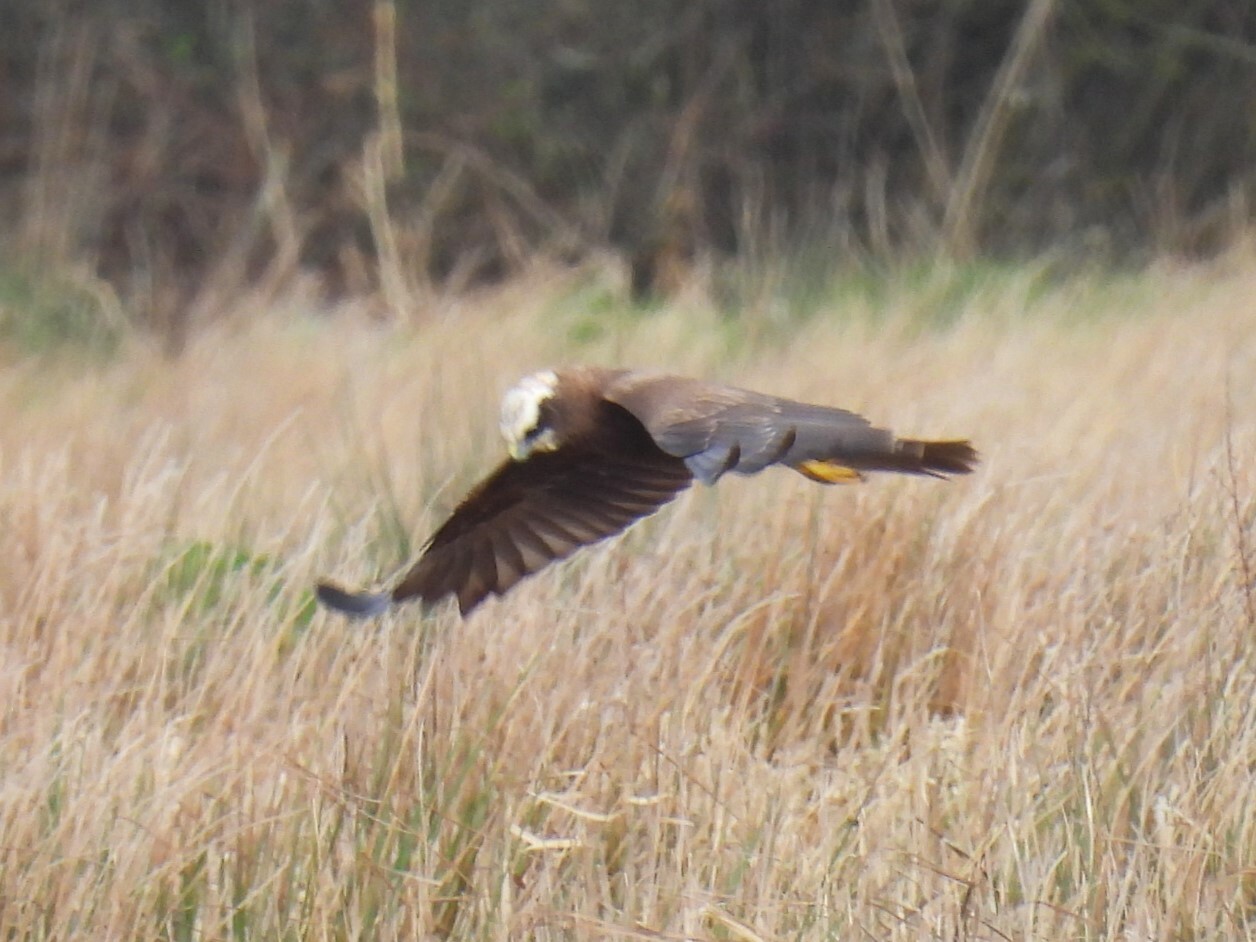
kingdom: Animalia
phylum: Chordata
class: Aves
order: Accipitriformes
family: Accipitridae
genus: Circus
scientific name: Circus aeruginosus
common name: Western marsh harrier
